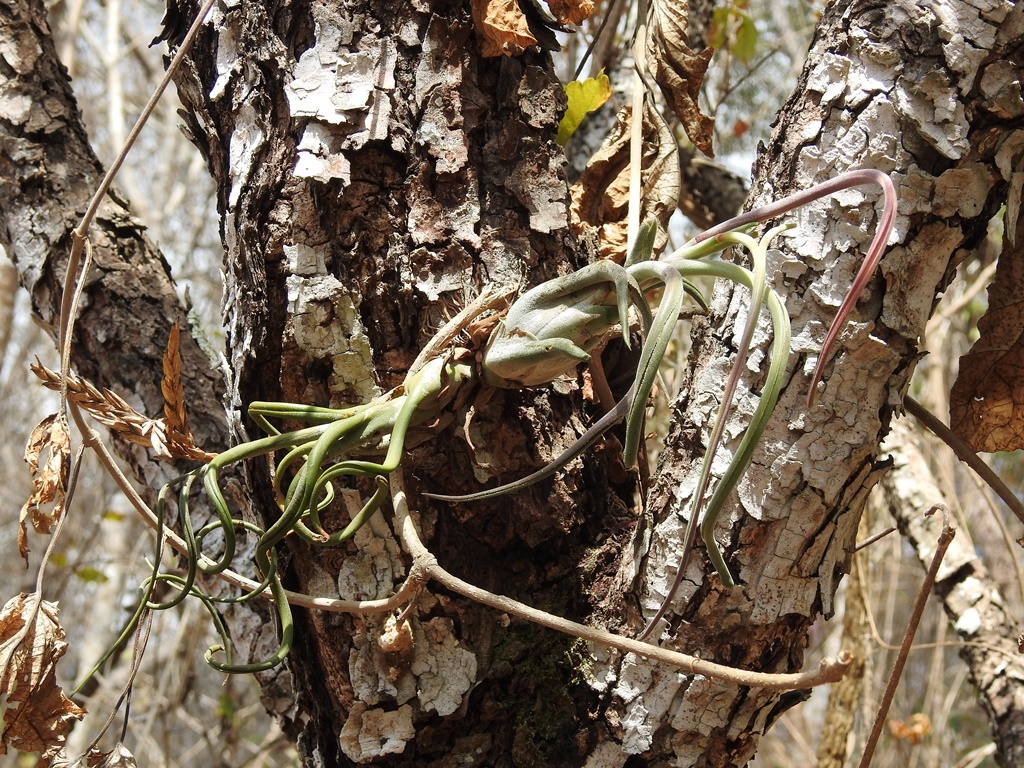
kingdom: Plantae
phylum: Tracheophyta
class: Liliopsida
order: Poales
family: Bromeliaceae
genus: Tillandsia
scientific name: Tillandsia caput-medusae
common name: Octopus plant
